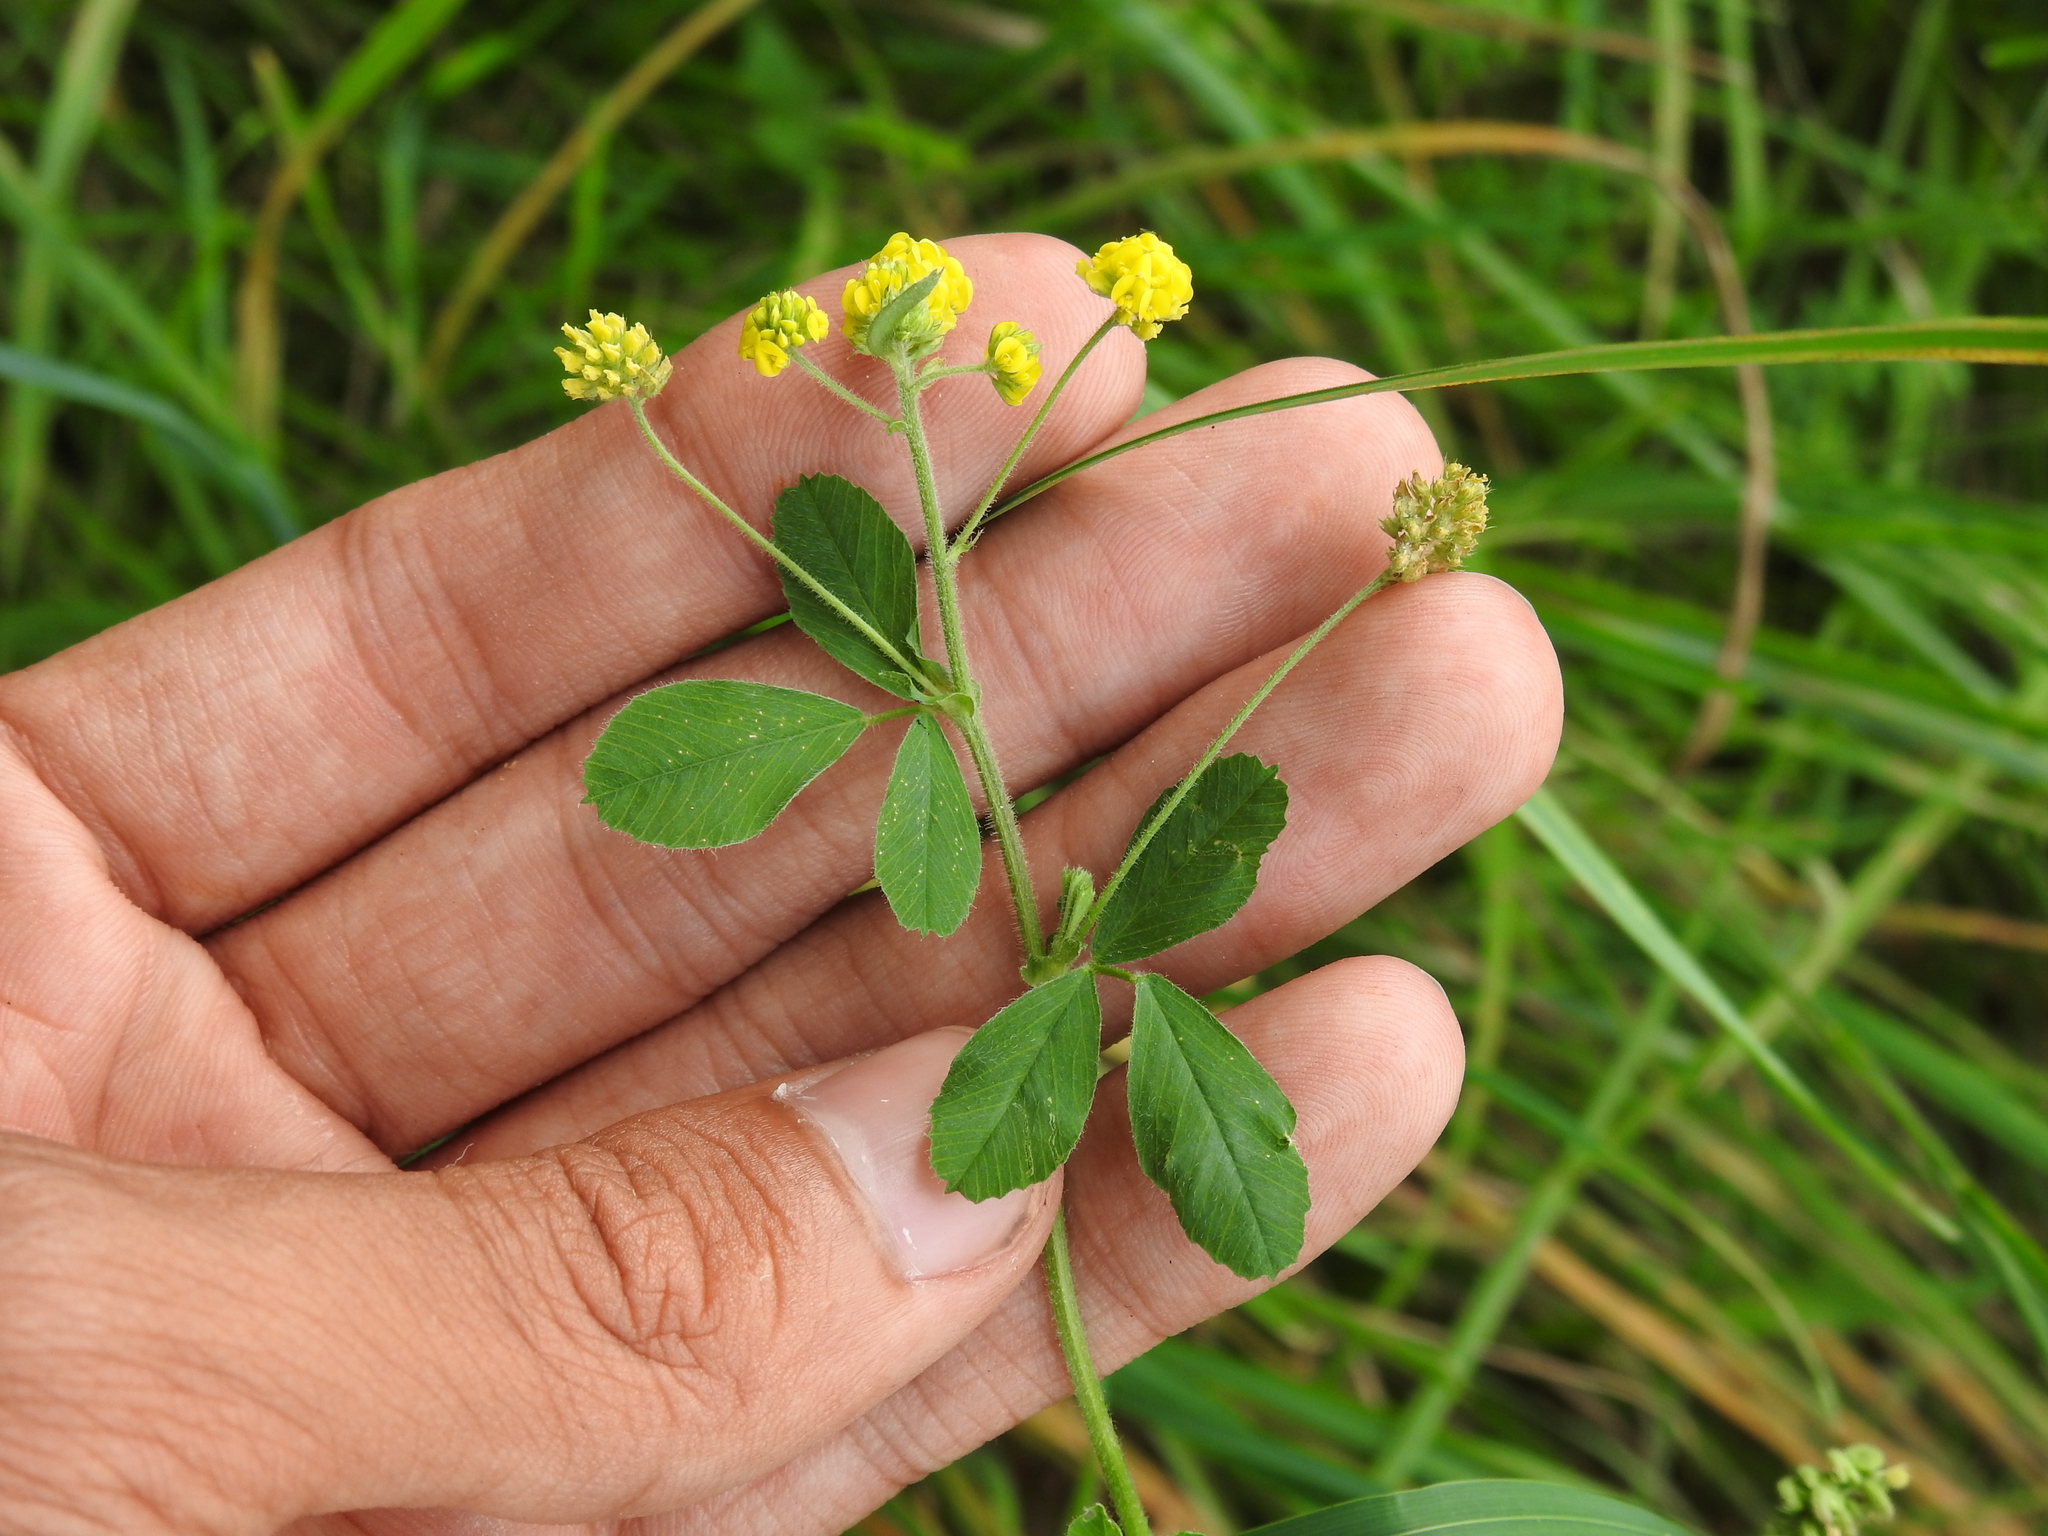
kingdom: Plantae
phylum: Tracheophyta
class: Magnoliopsida
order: Fabales
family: Fabaceae
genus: Medicago
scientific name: Medicago lupulina
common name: Black medick
